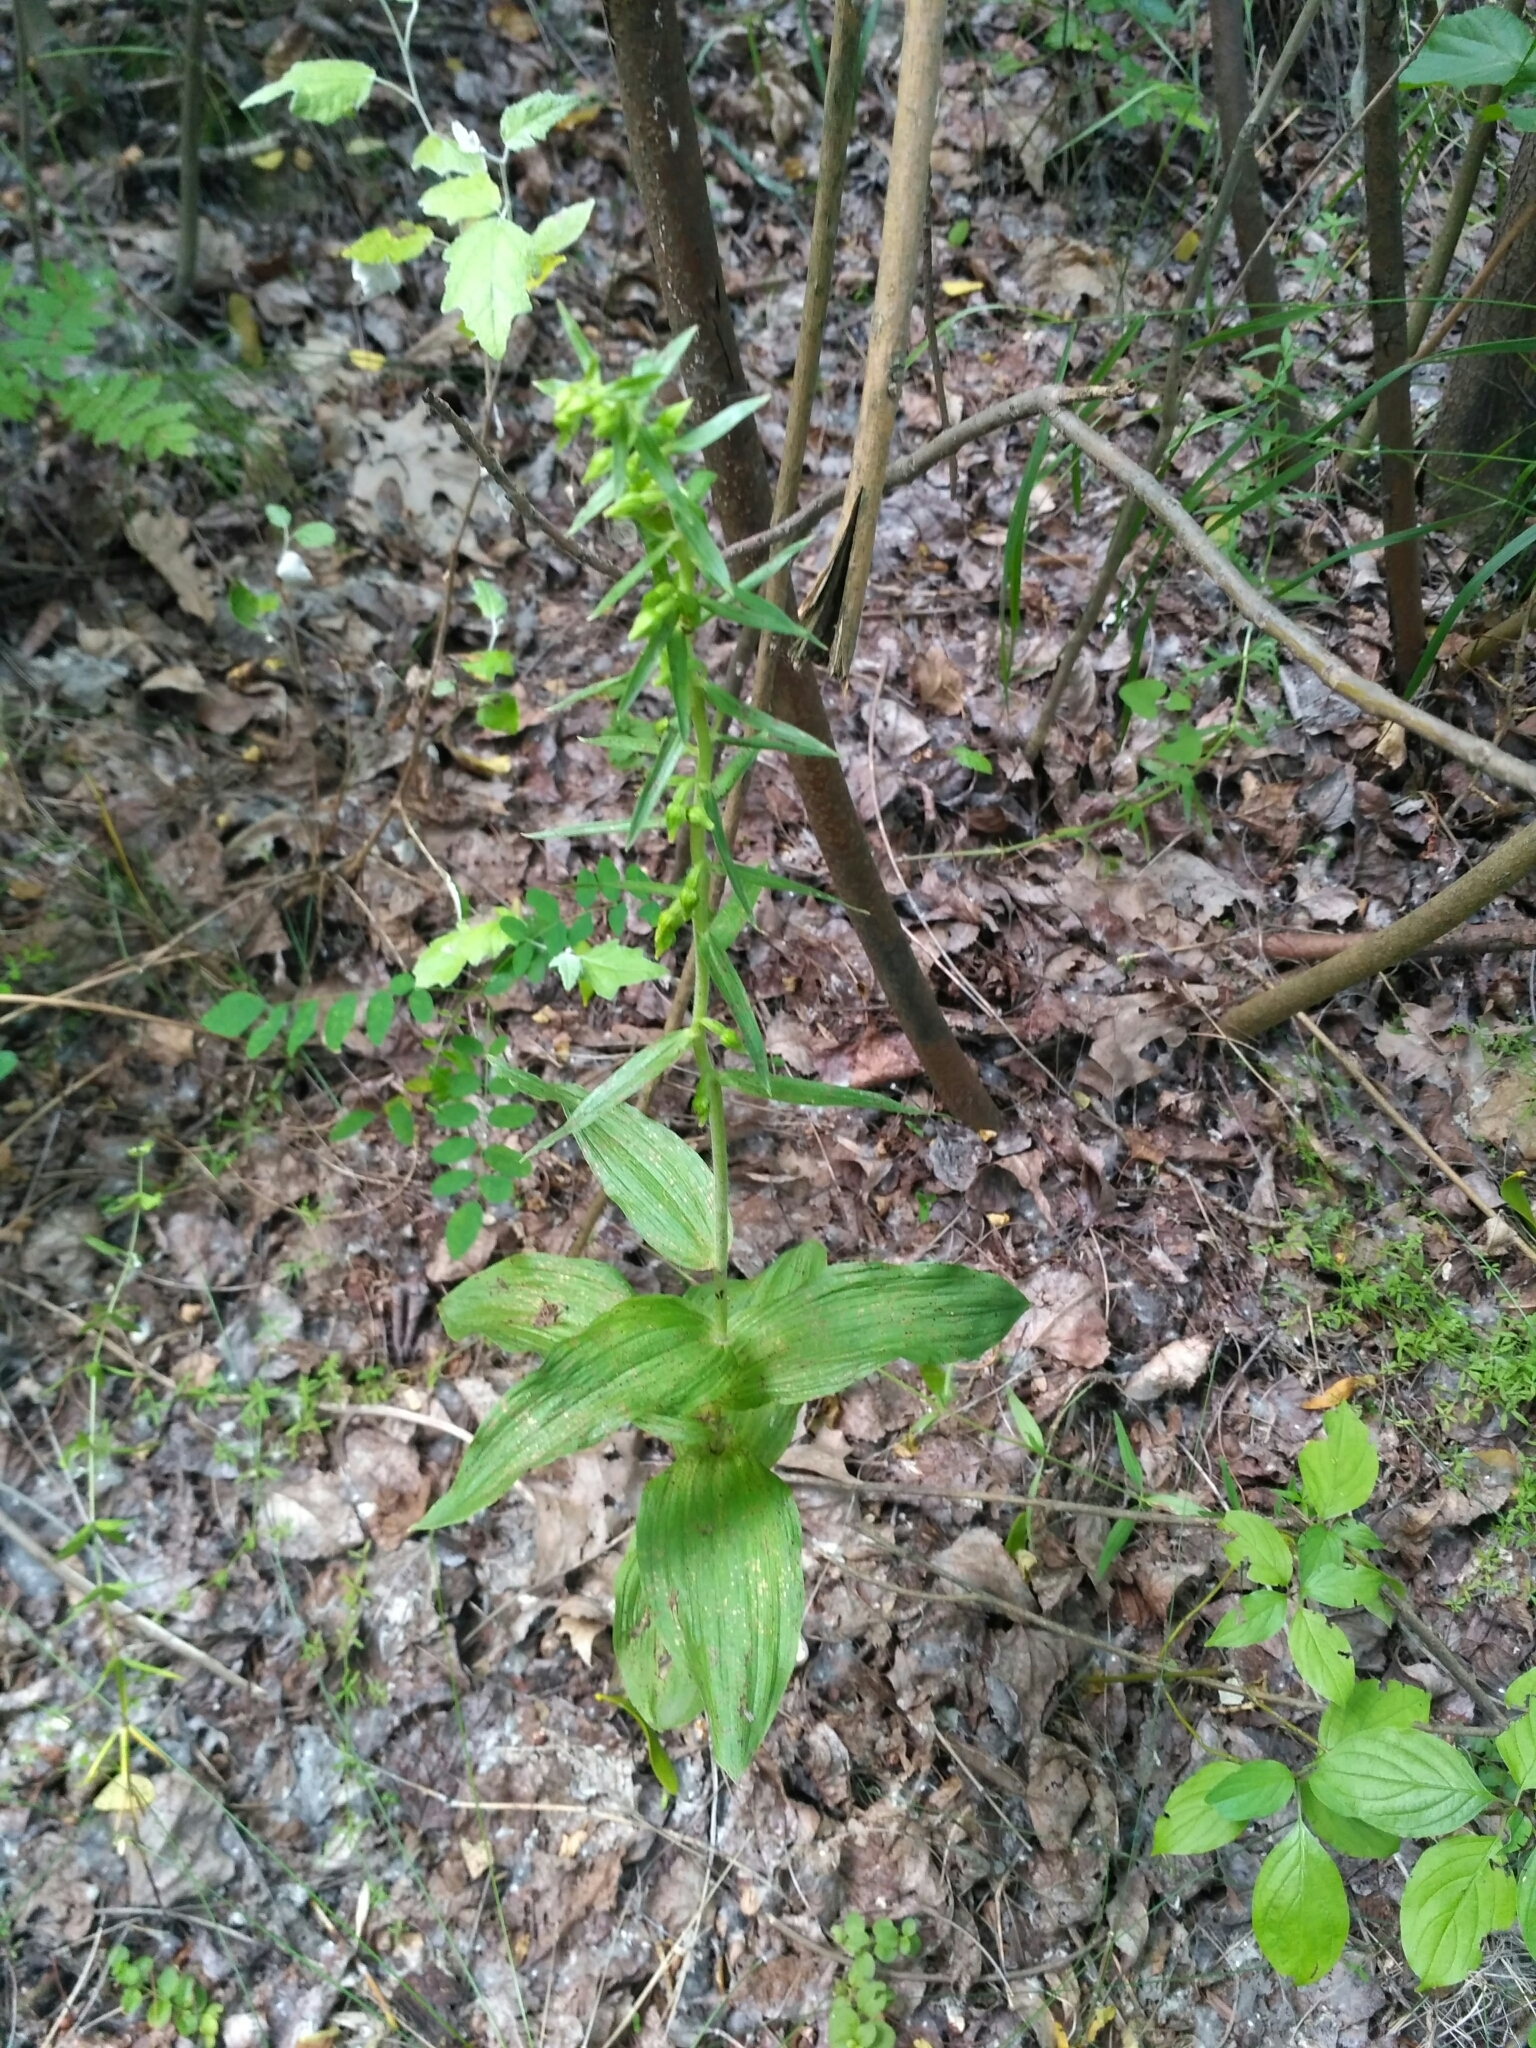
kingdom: Plantae
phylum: Tracheophyta
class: Liliopsida
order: Asparagales
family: Orchidaceae
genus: Epipactis
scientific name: Epipactis helleborine
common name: Broad-leaved helleborine
